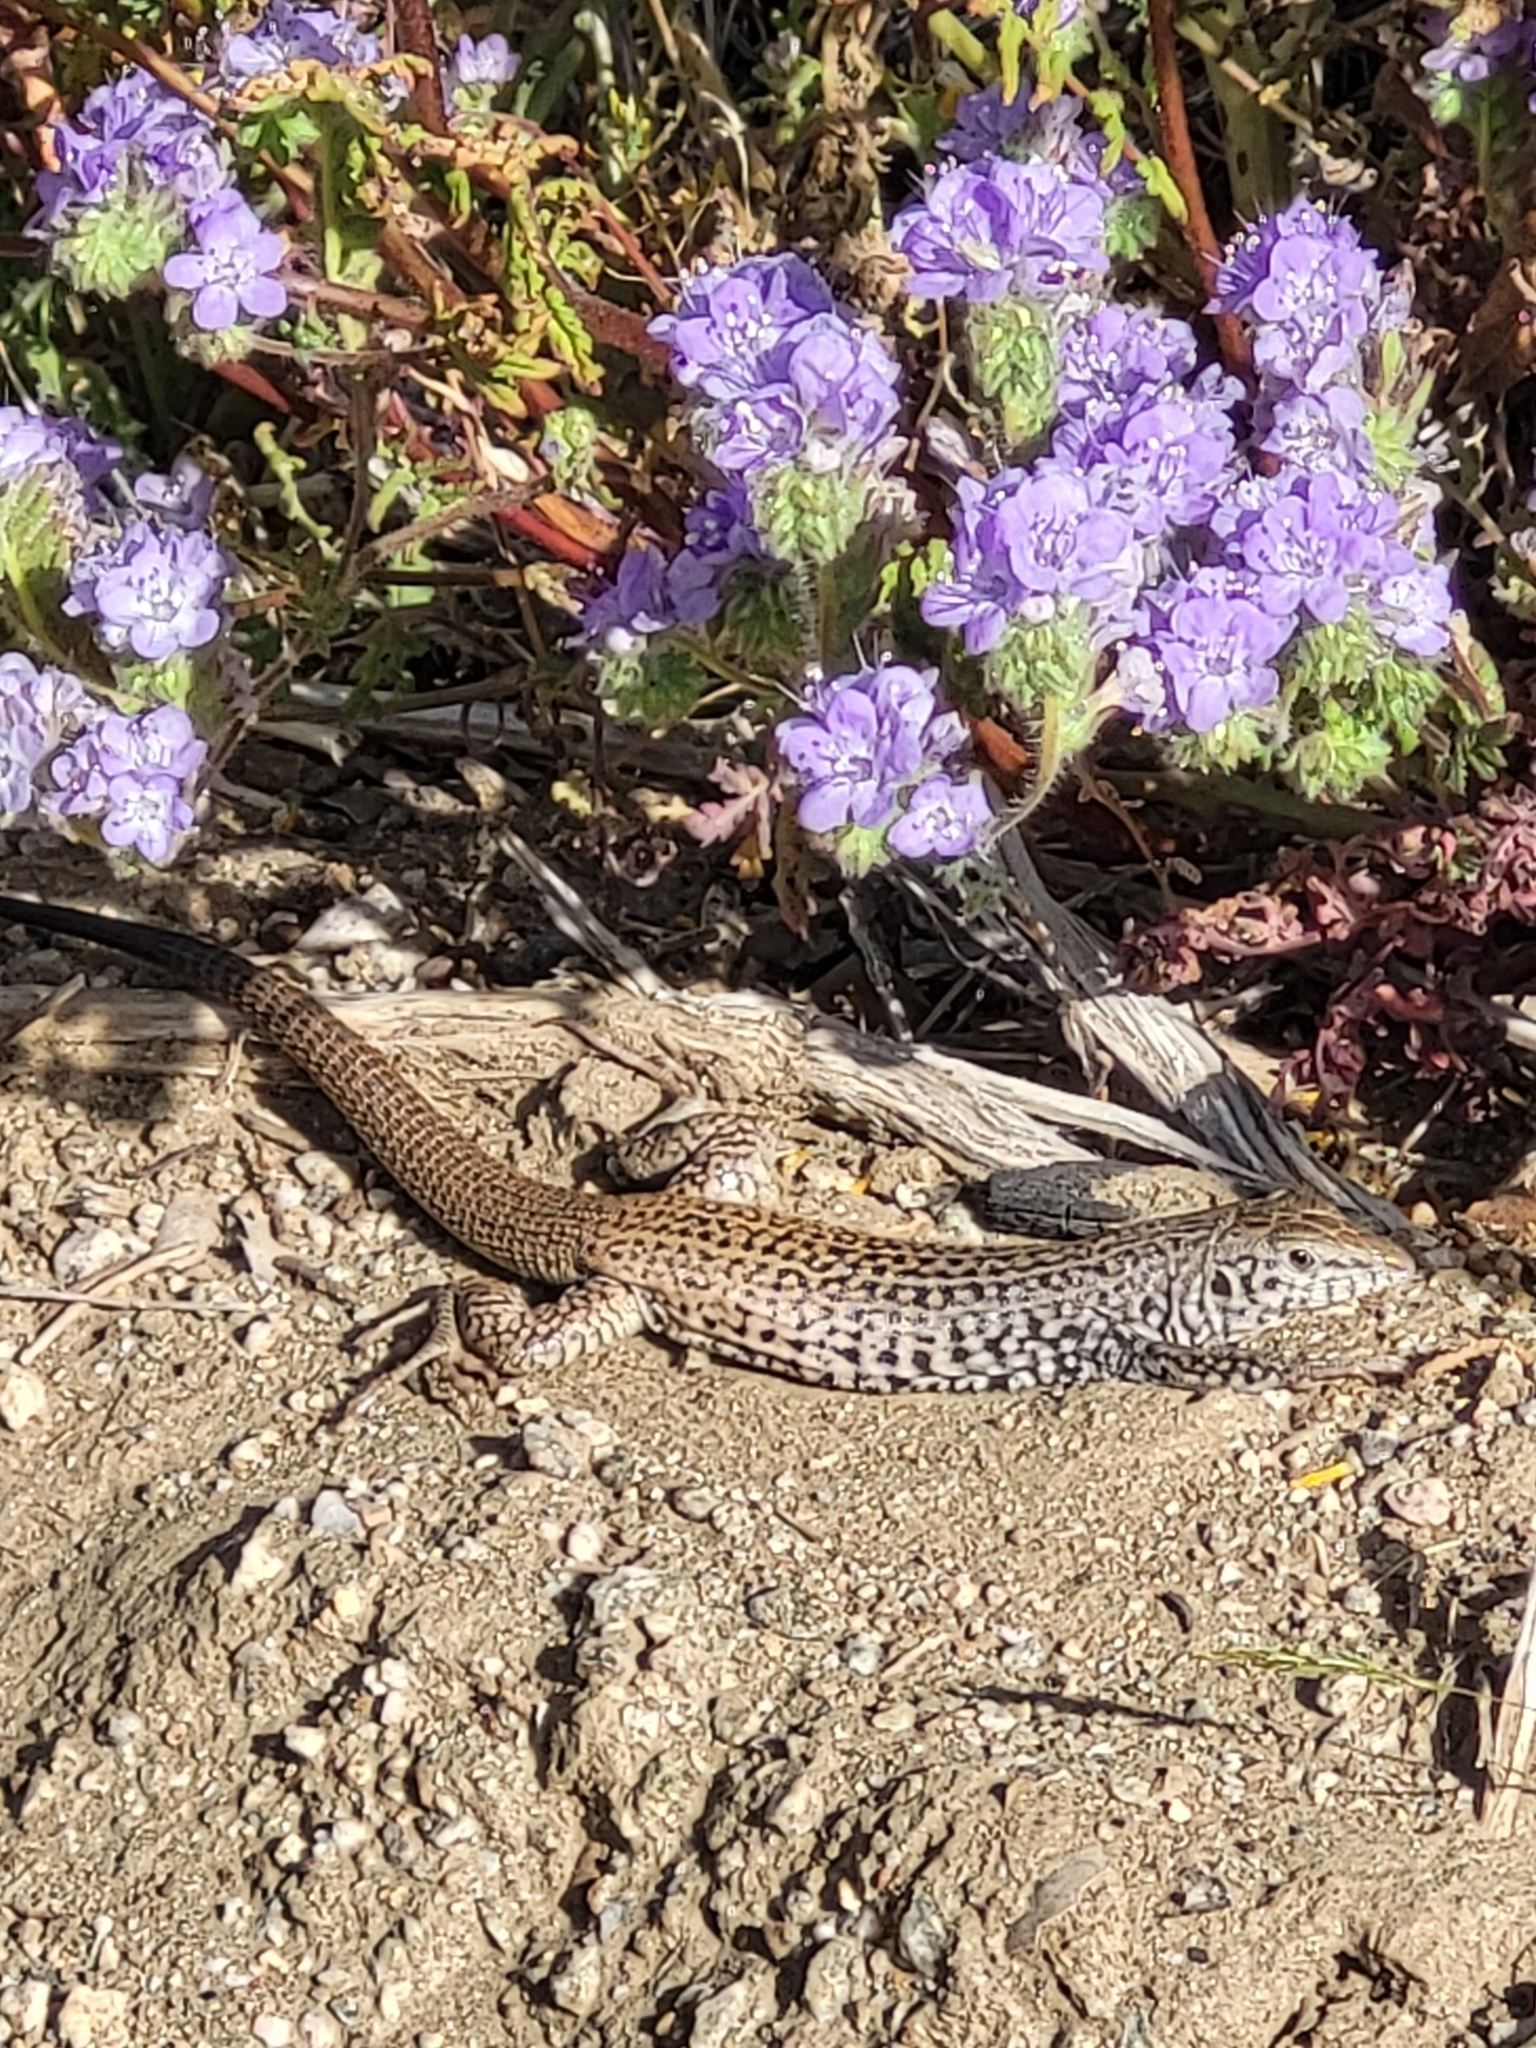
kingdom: Animalia
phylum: Chordata
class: Squamata
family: Teiidae
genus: Aspidoscelis
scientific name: Aspidoscelis tigris
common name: Tiger whiptail
